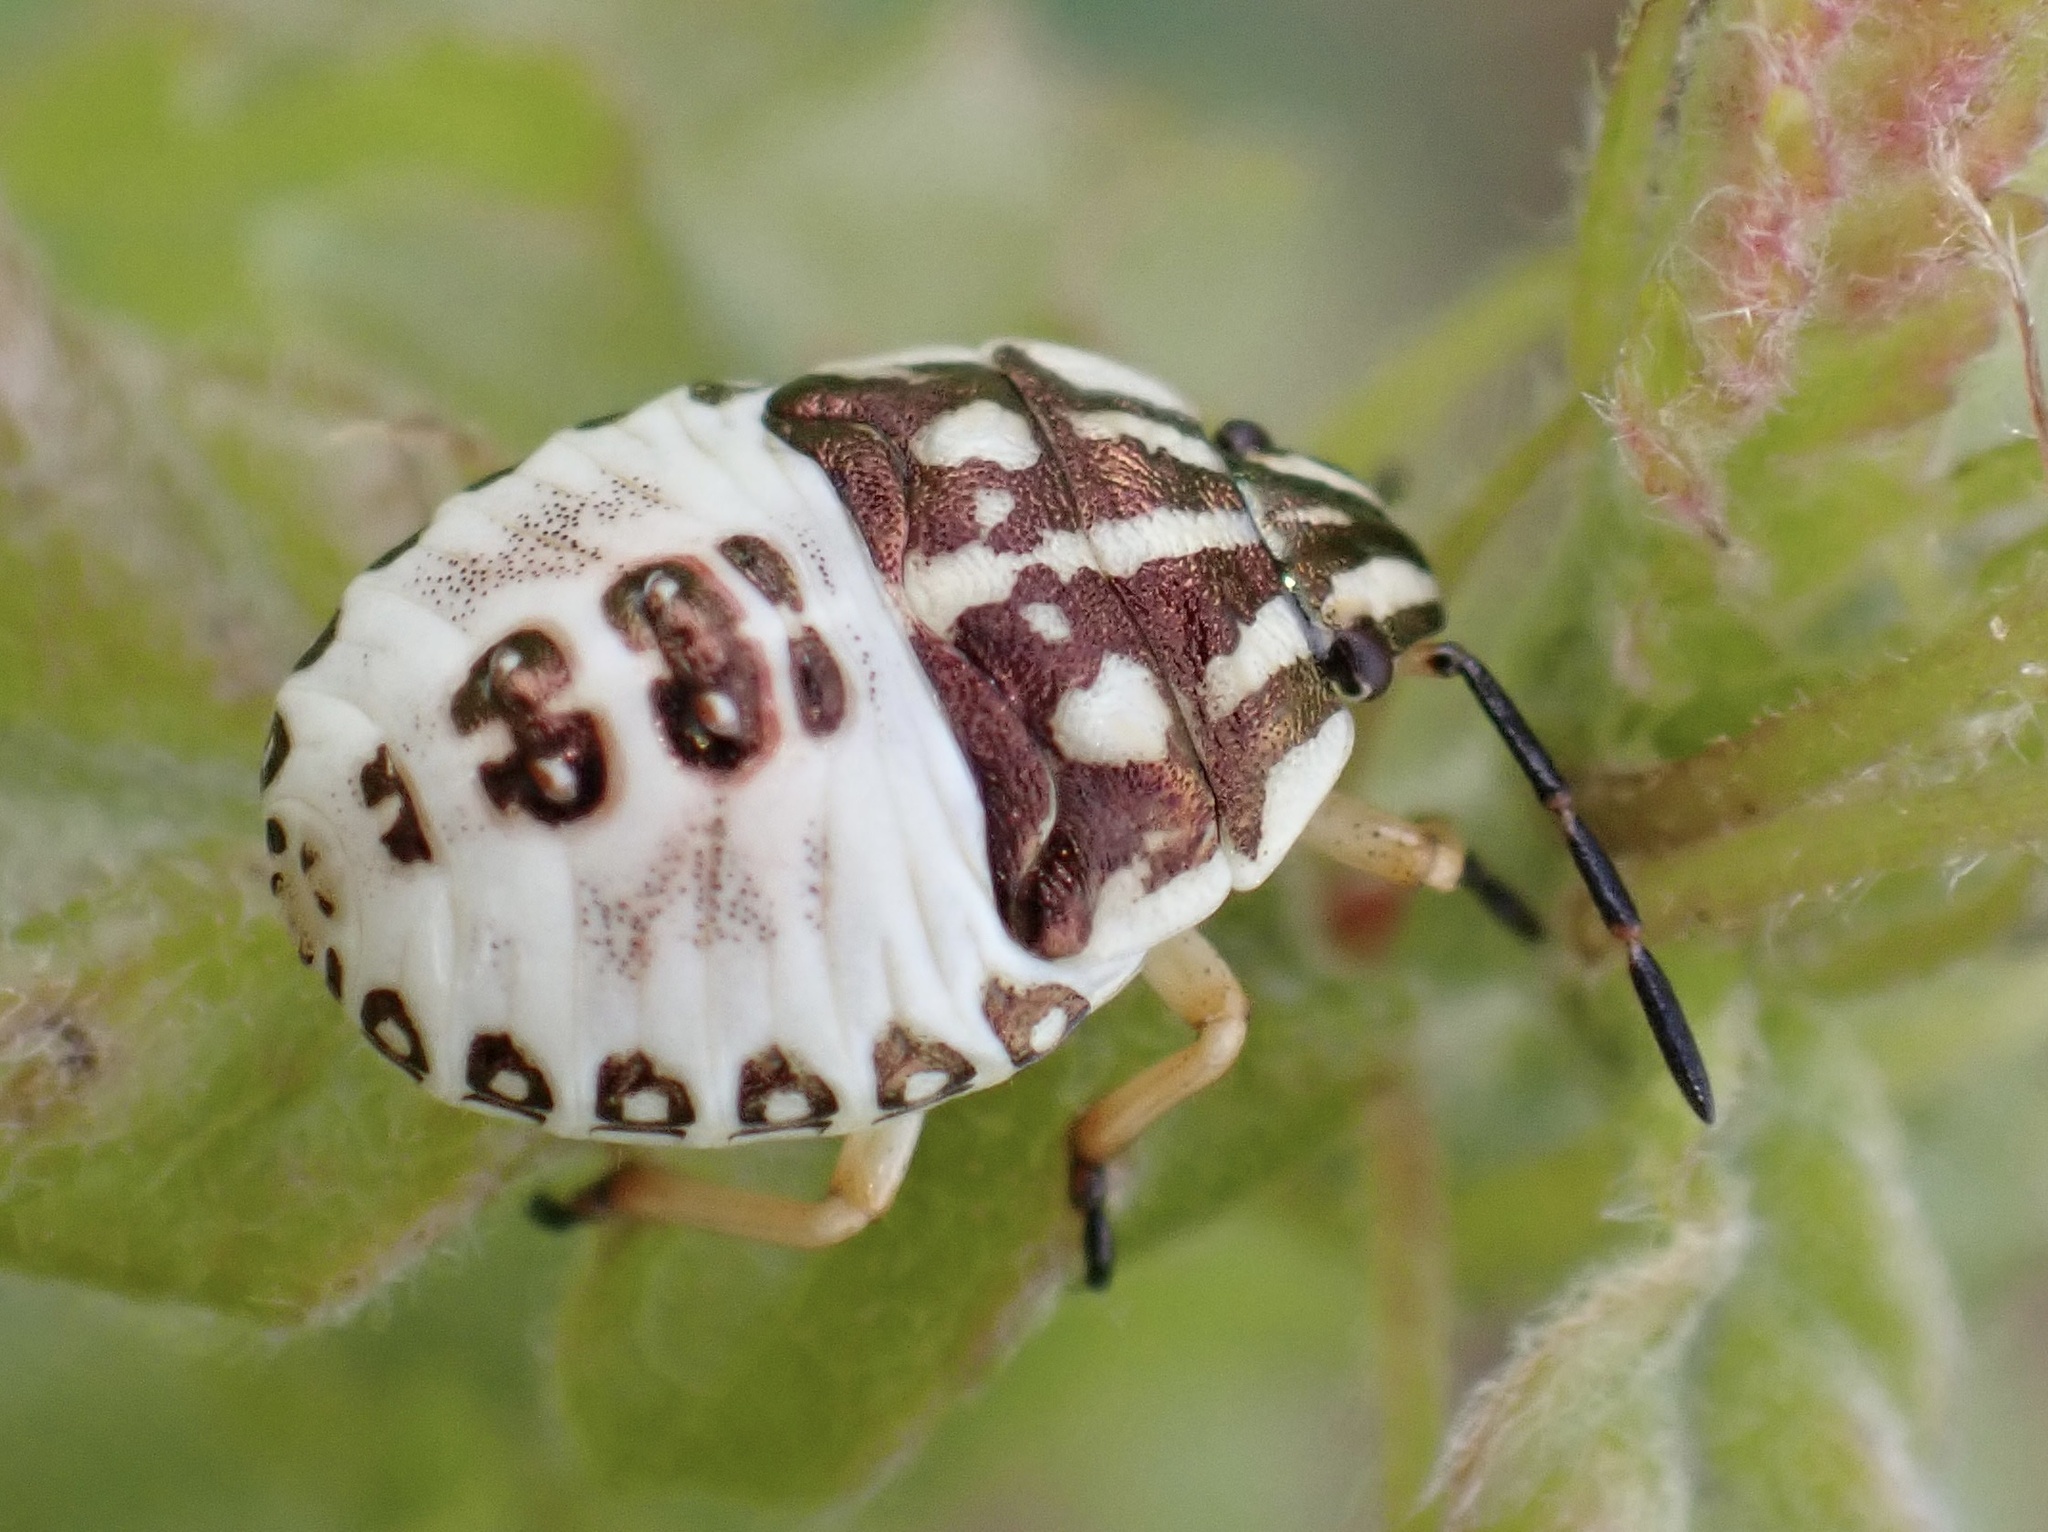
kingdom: Animalia
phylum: Arthropoda
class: Insecta
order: Hemiptera
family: Pentatomidae
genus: Carpocoris
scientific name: Carpocoris purpureipennis
